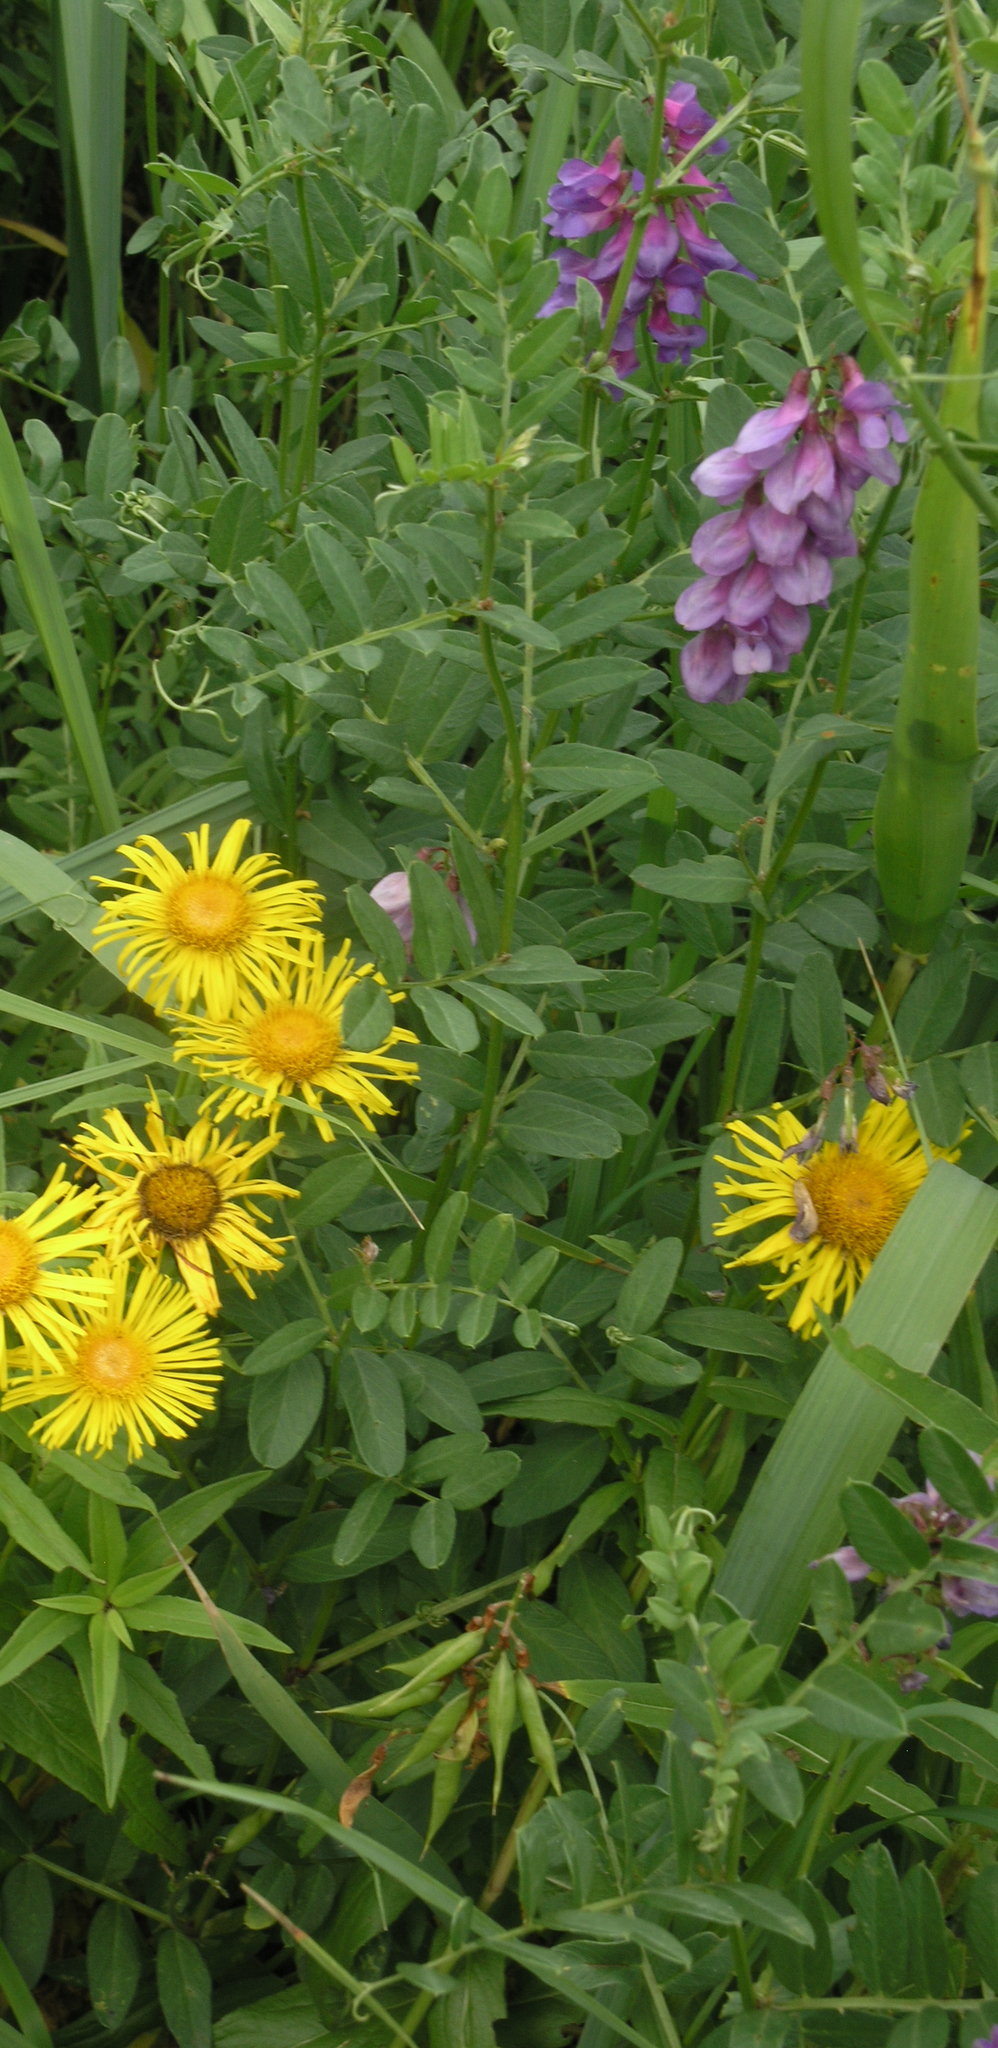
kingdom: Plantae
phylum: Tracheophyta
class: Magnoliopsida
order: Fabales
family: Fabaceae
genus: Vicia
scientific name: Vicia amoena
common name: Cheder ebs
